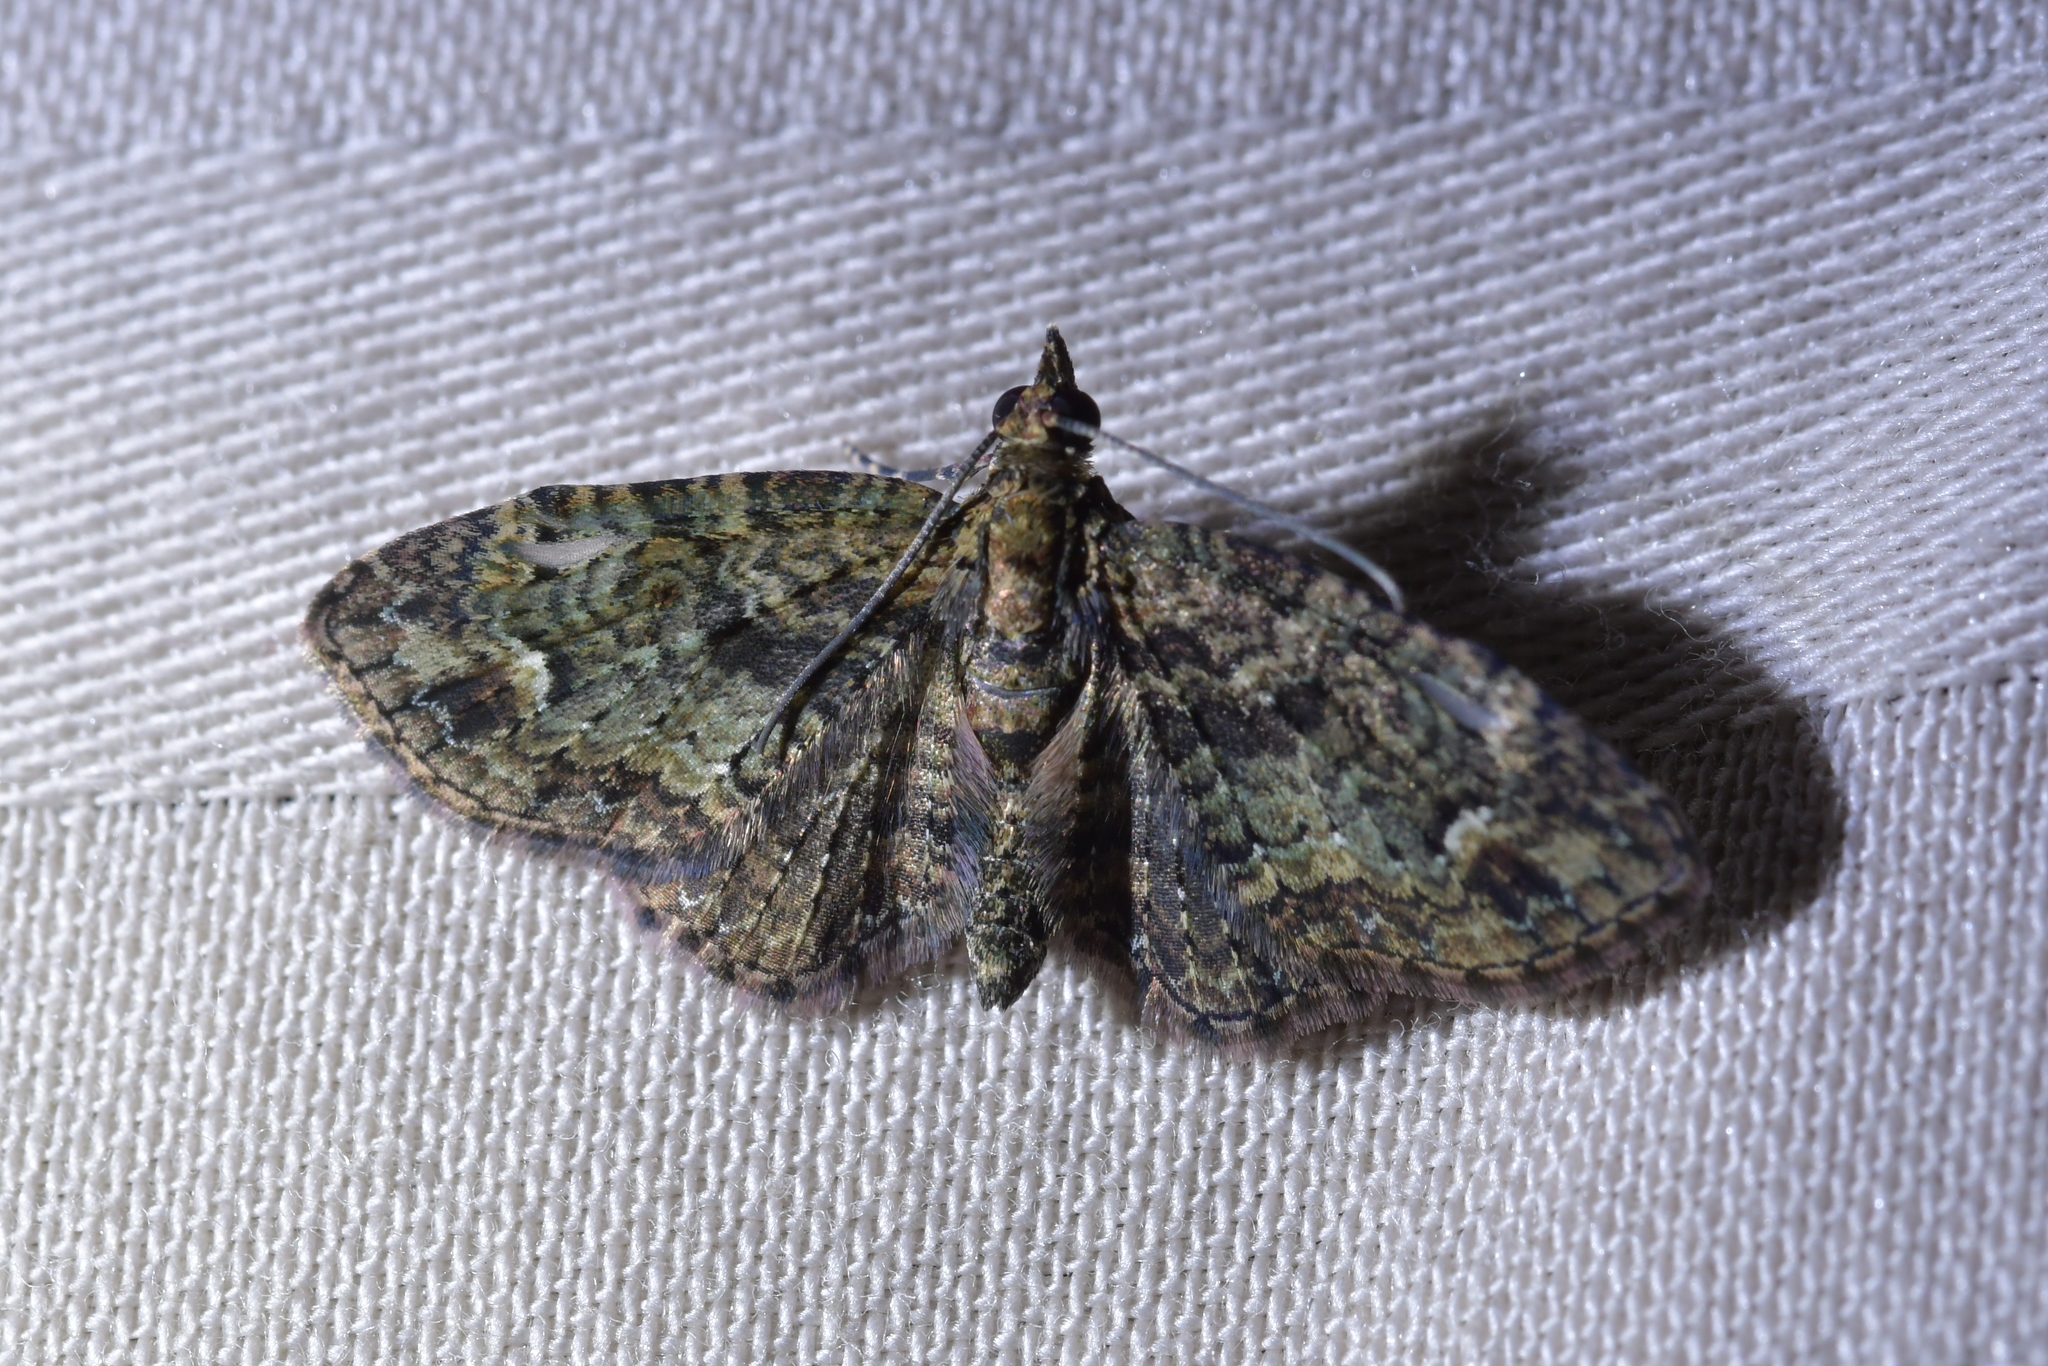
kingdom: Animalia
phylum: Arthropoda
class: Insecta
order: Lepidoptera
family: Geometridae
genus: Pasiphilodes
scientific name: Pasiphilodes testulata
